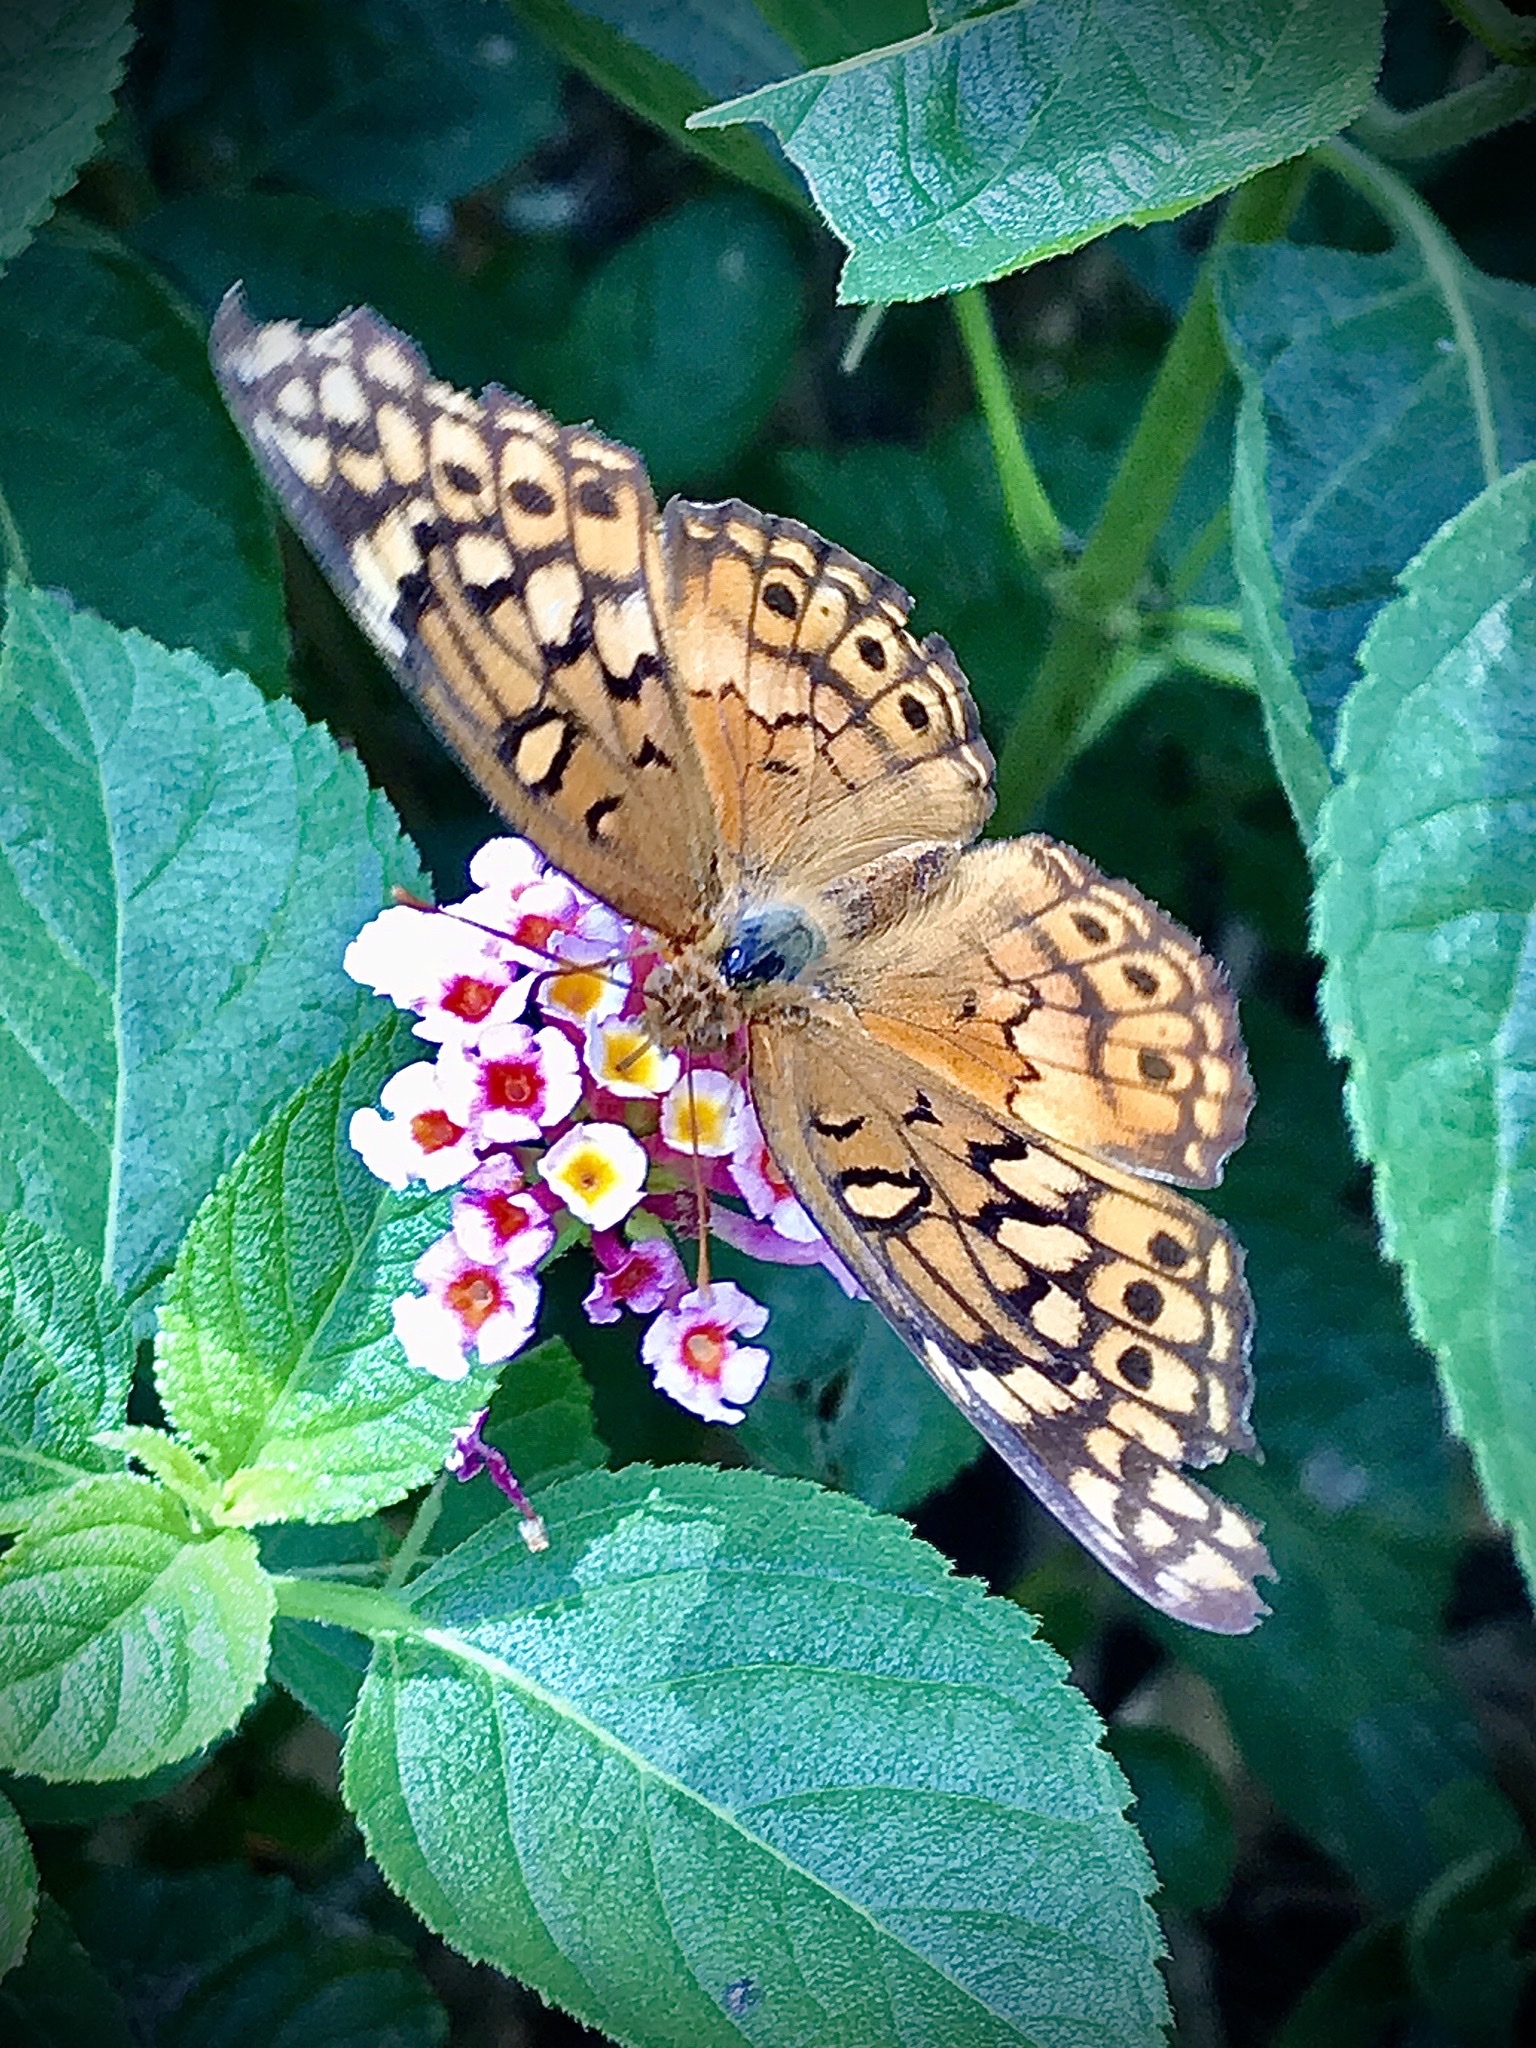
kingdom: Animalia
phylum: Arthropoda
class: Insecta
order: Lepidoptera
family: Nymphalidae
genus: Euptoieta
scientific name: Euptoieta claudia
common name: Variegated fritillary
